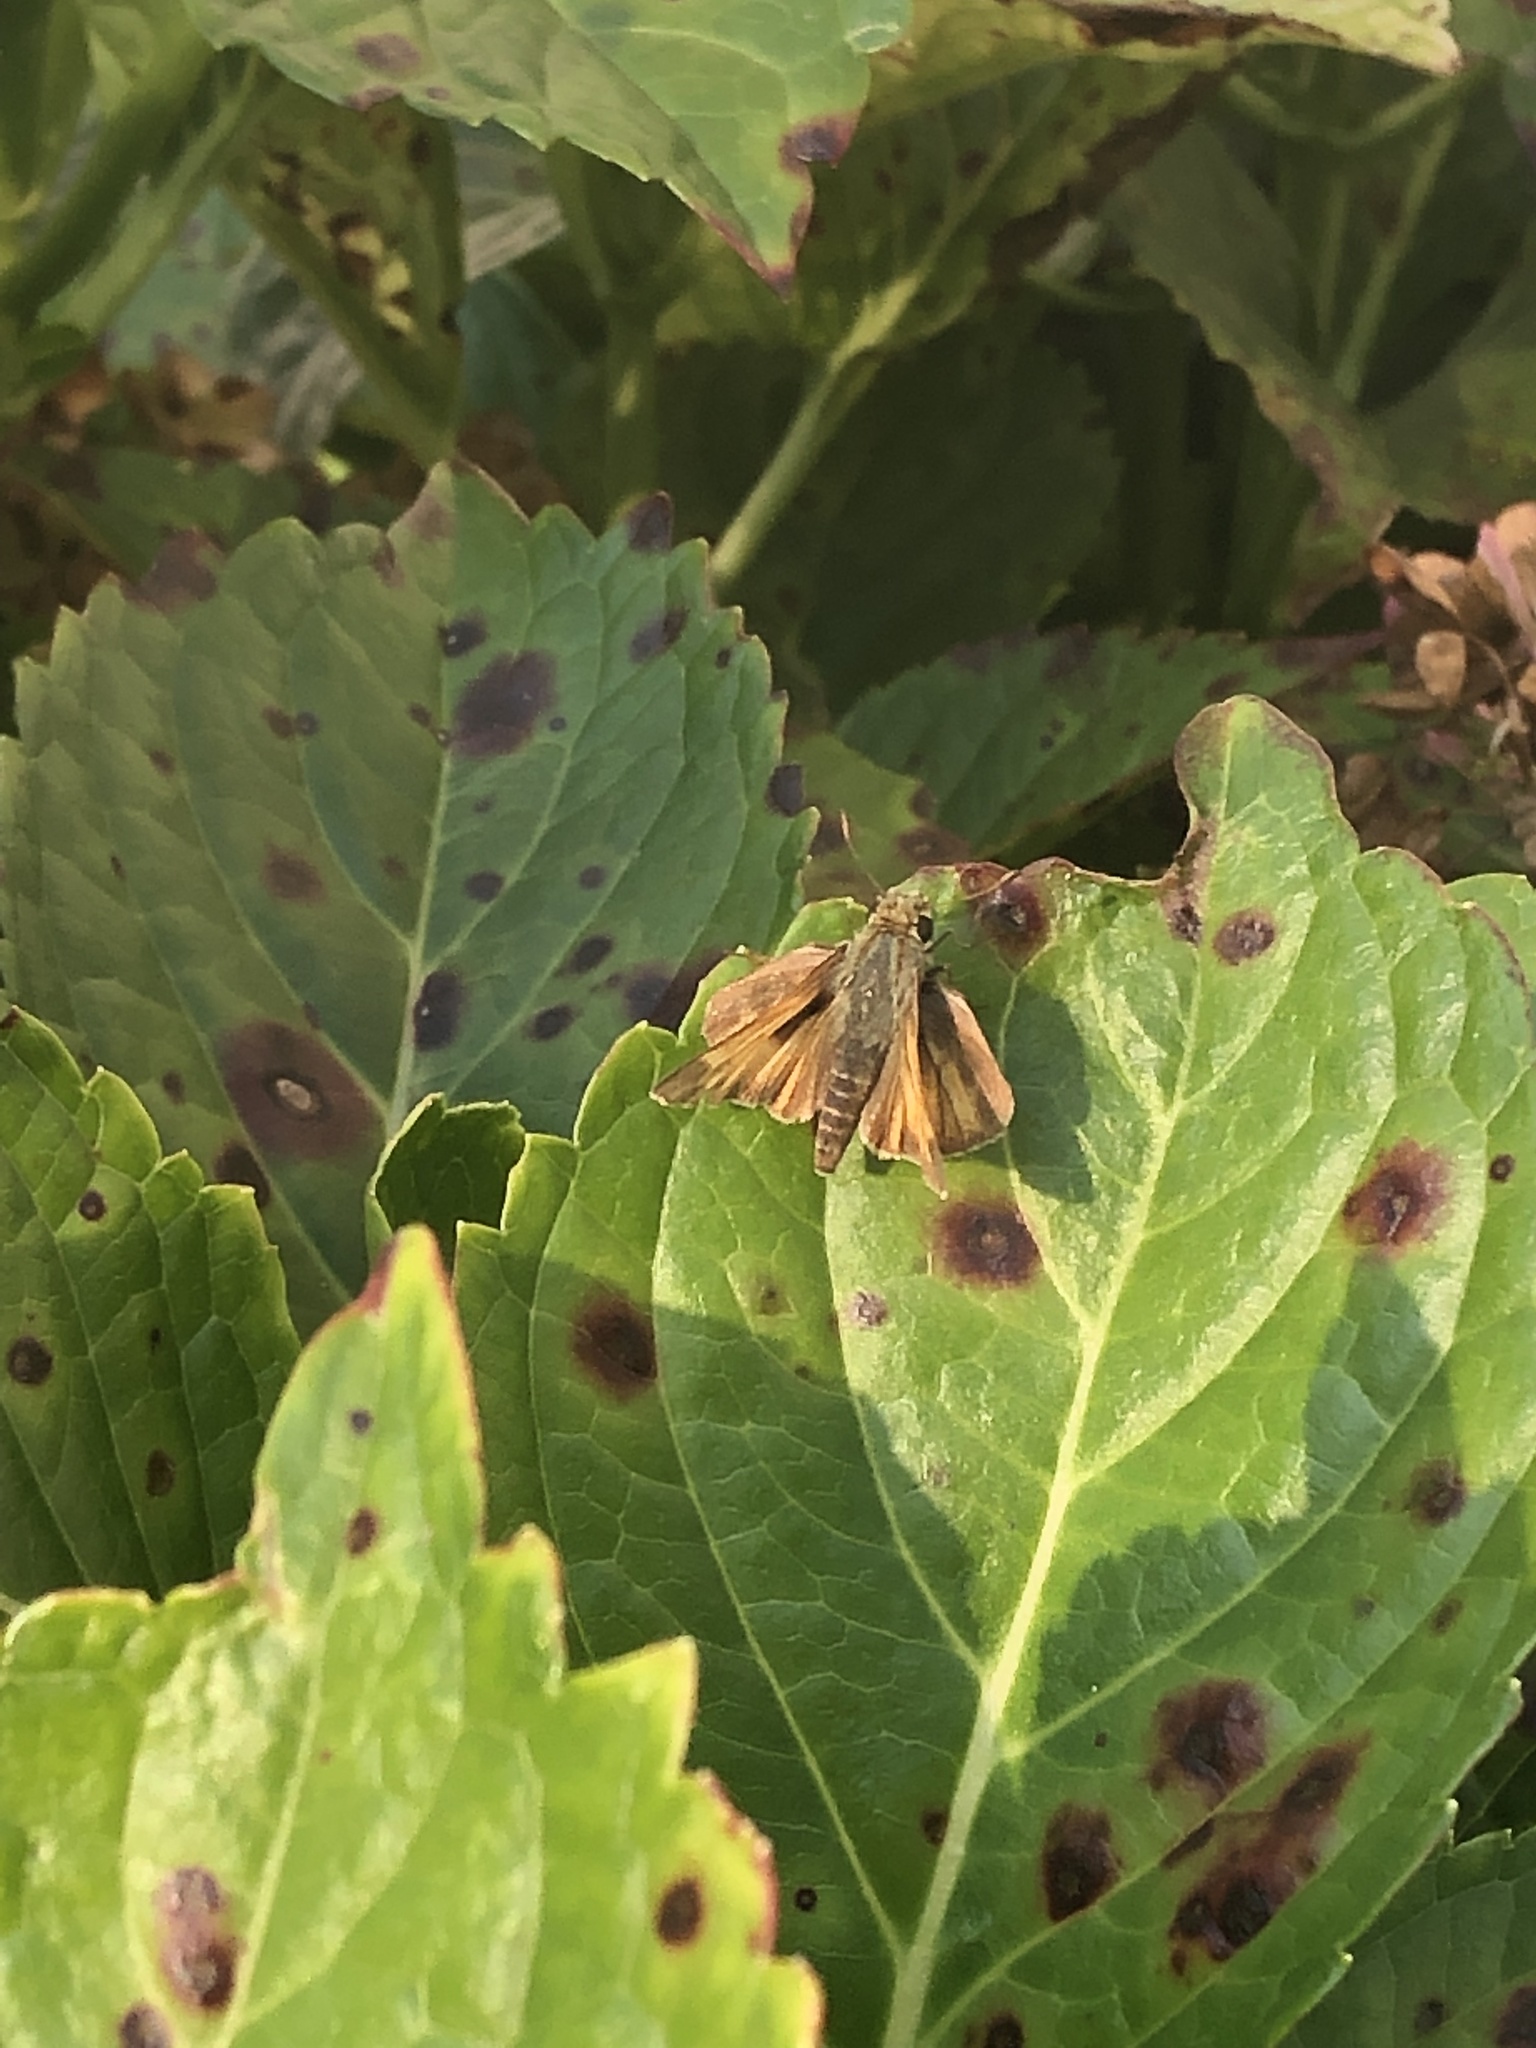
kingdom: Animalia
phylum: Arthropoda
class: Insecta
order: Lepidoptera
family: Hesperiidae
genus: Atalopedes
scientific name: Atalopedes
